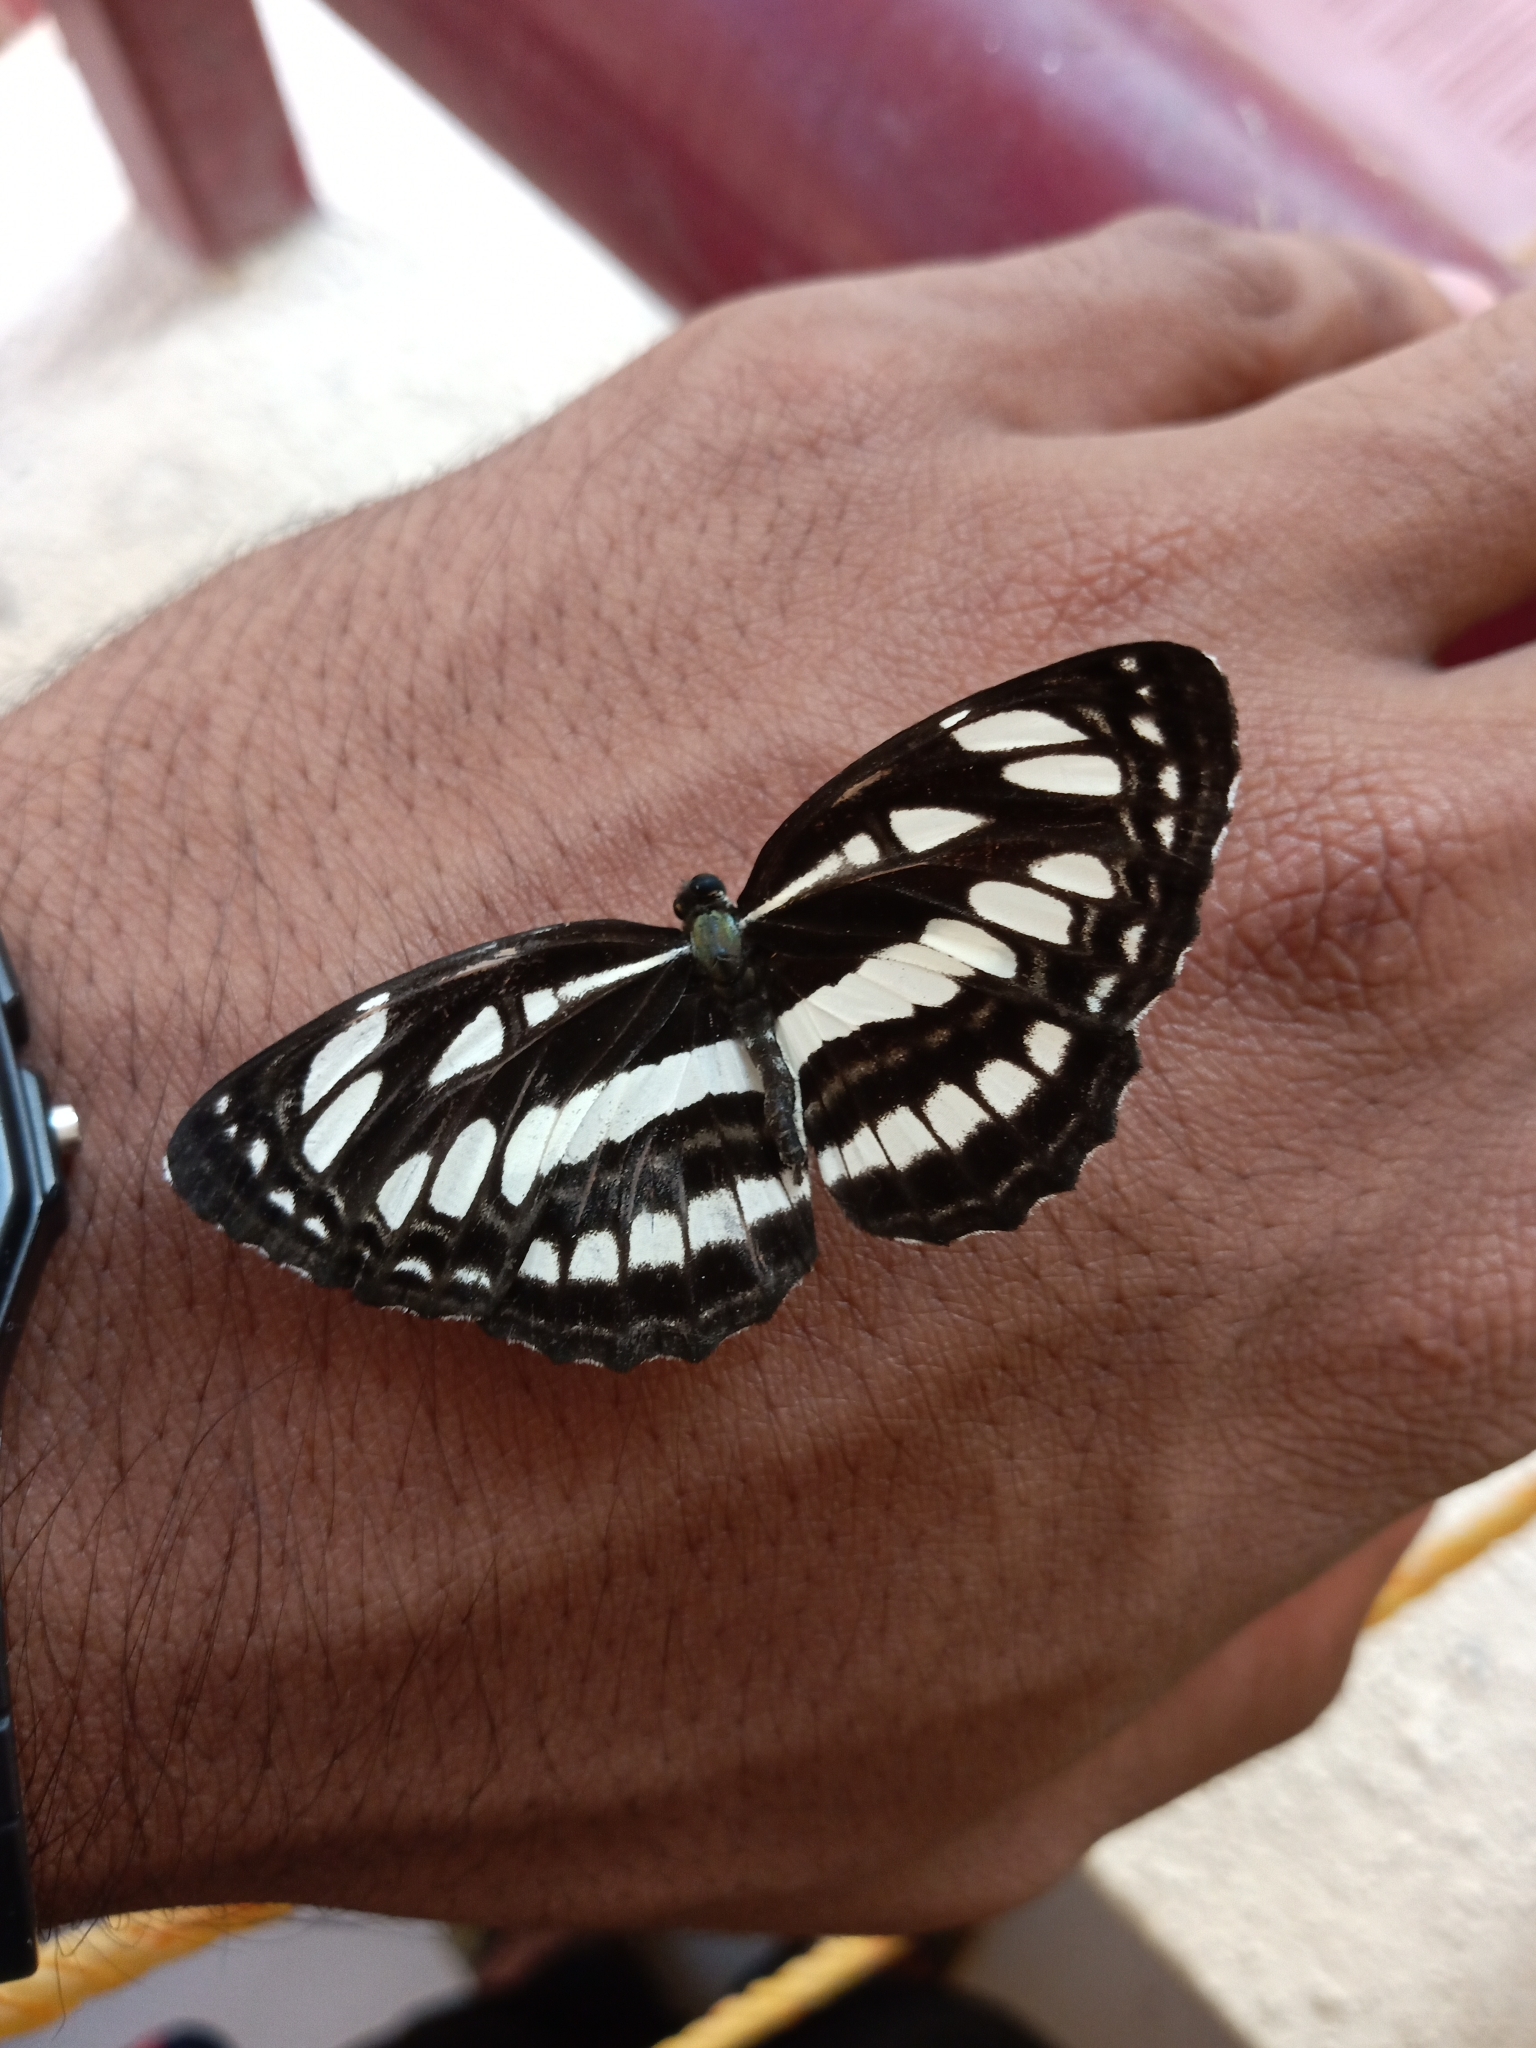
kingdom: Animalia
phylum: Arthropoda
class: Insecta
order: Lepidoptera
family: Nymphalidae
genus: Neptis
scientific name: Neptis hylas
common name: Common sailer
